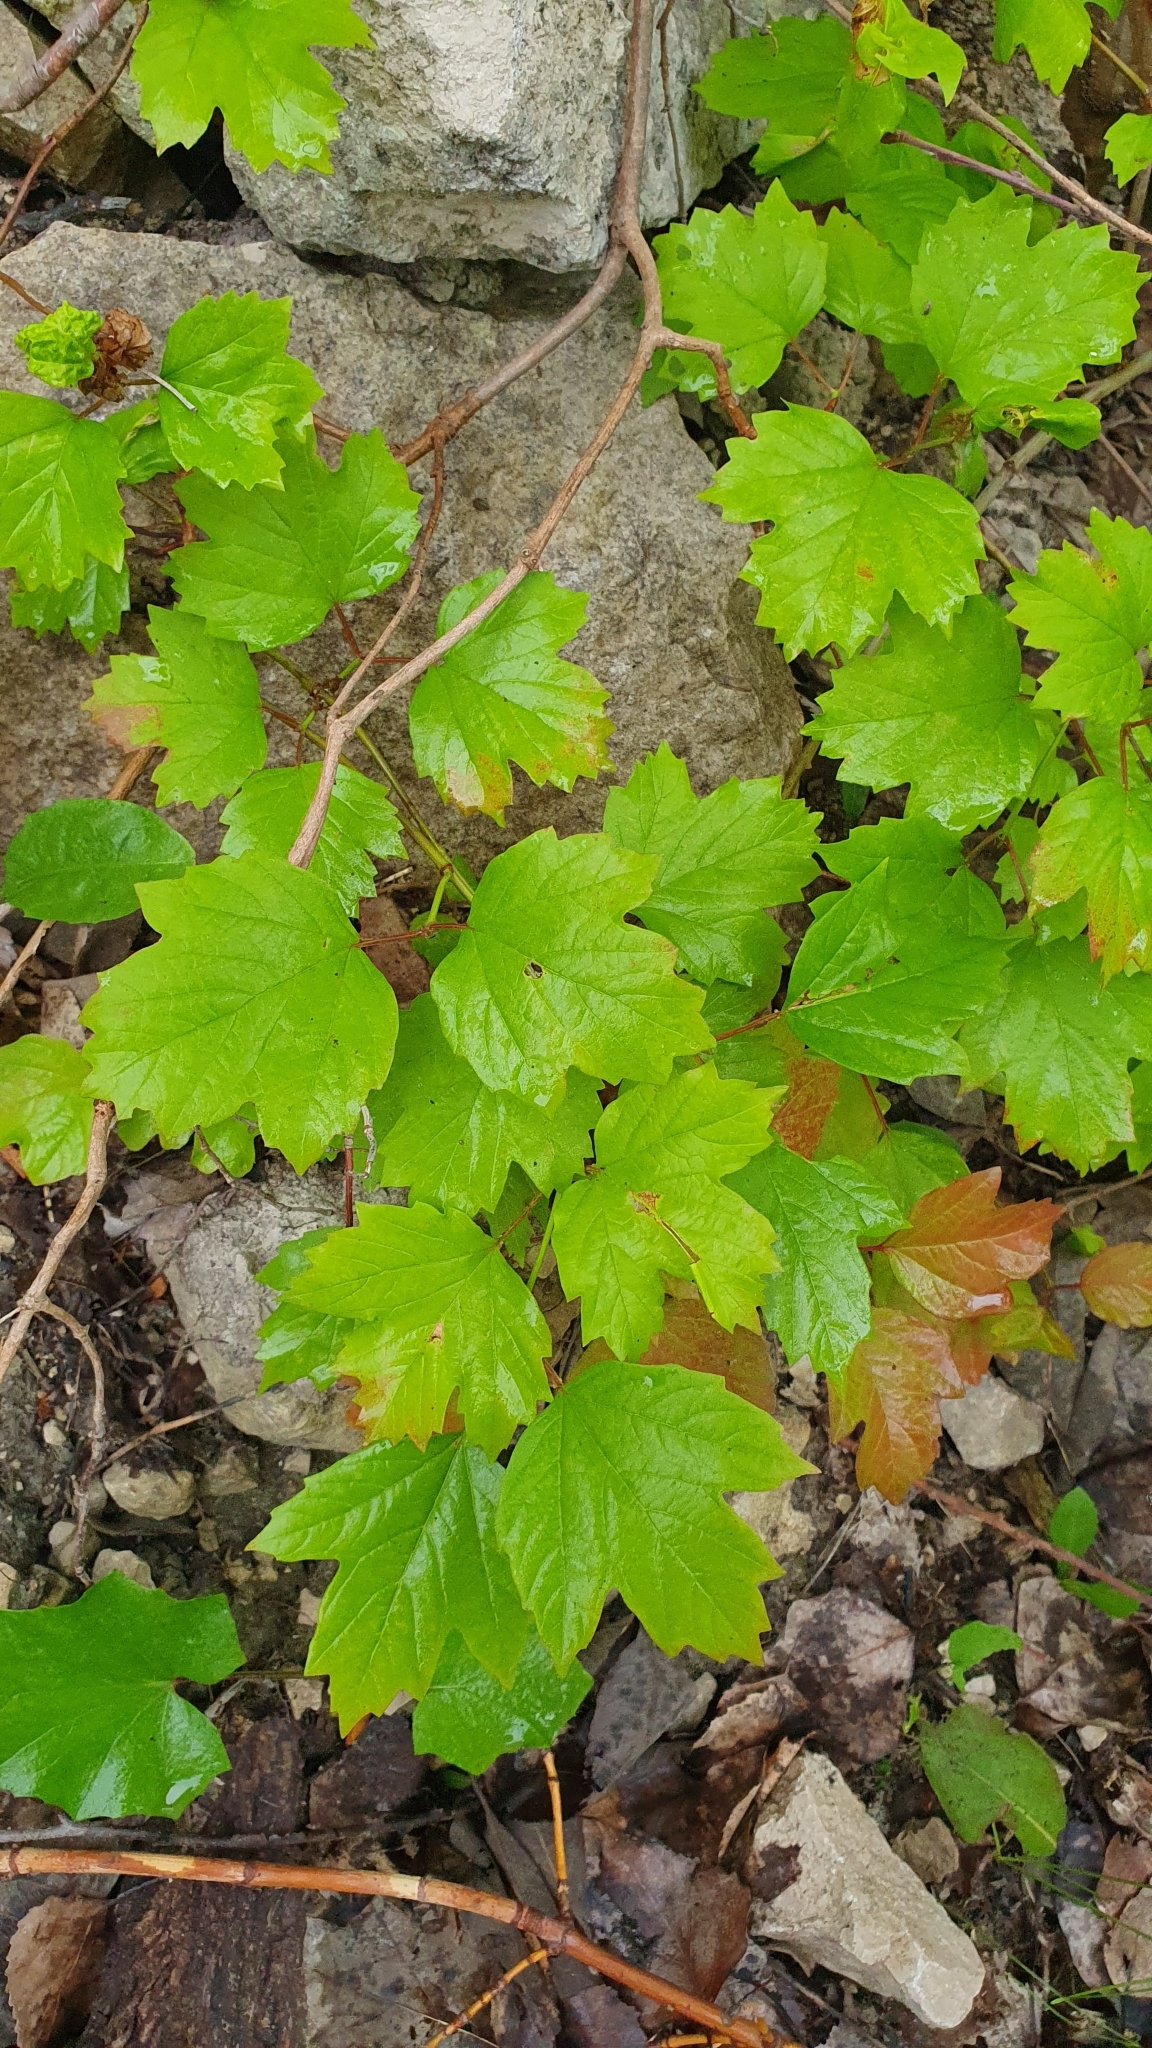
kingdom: Plantae
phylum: Tracheophyta
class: Magnoliopsida
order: Dipsacales
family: Viburnaceae
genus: Viburnum
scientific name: Viburnum opulus
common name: Guelder-rose
